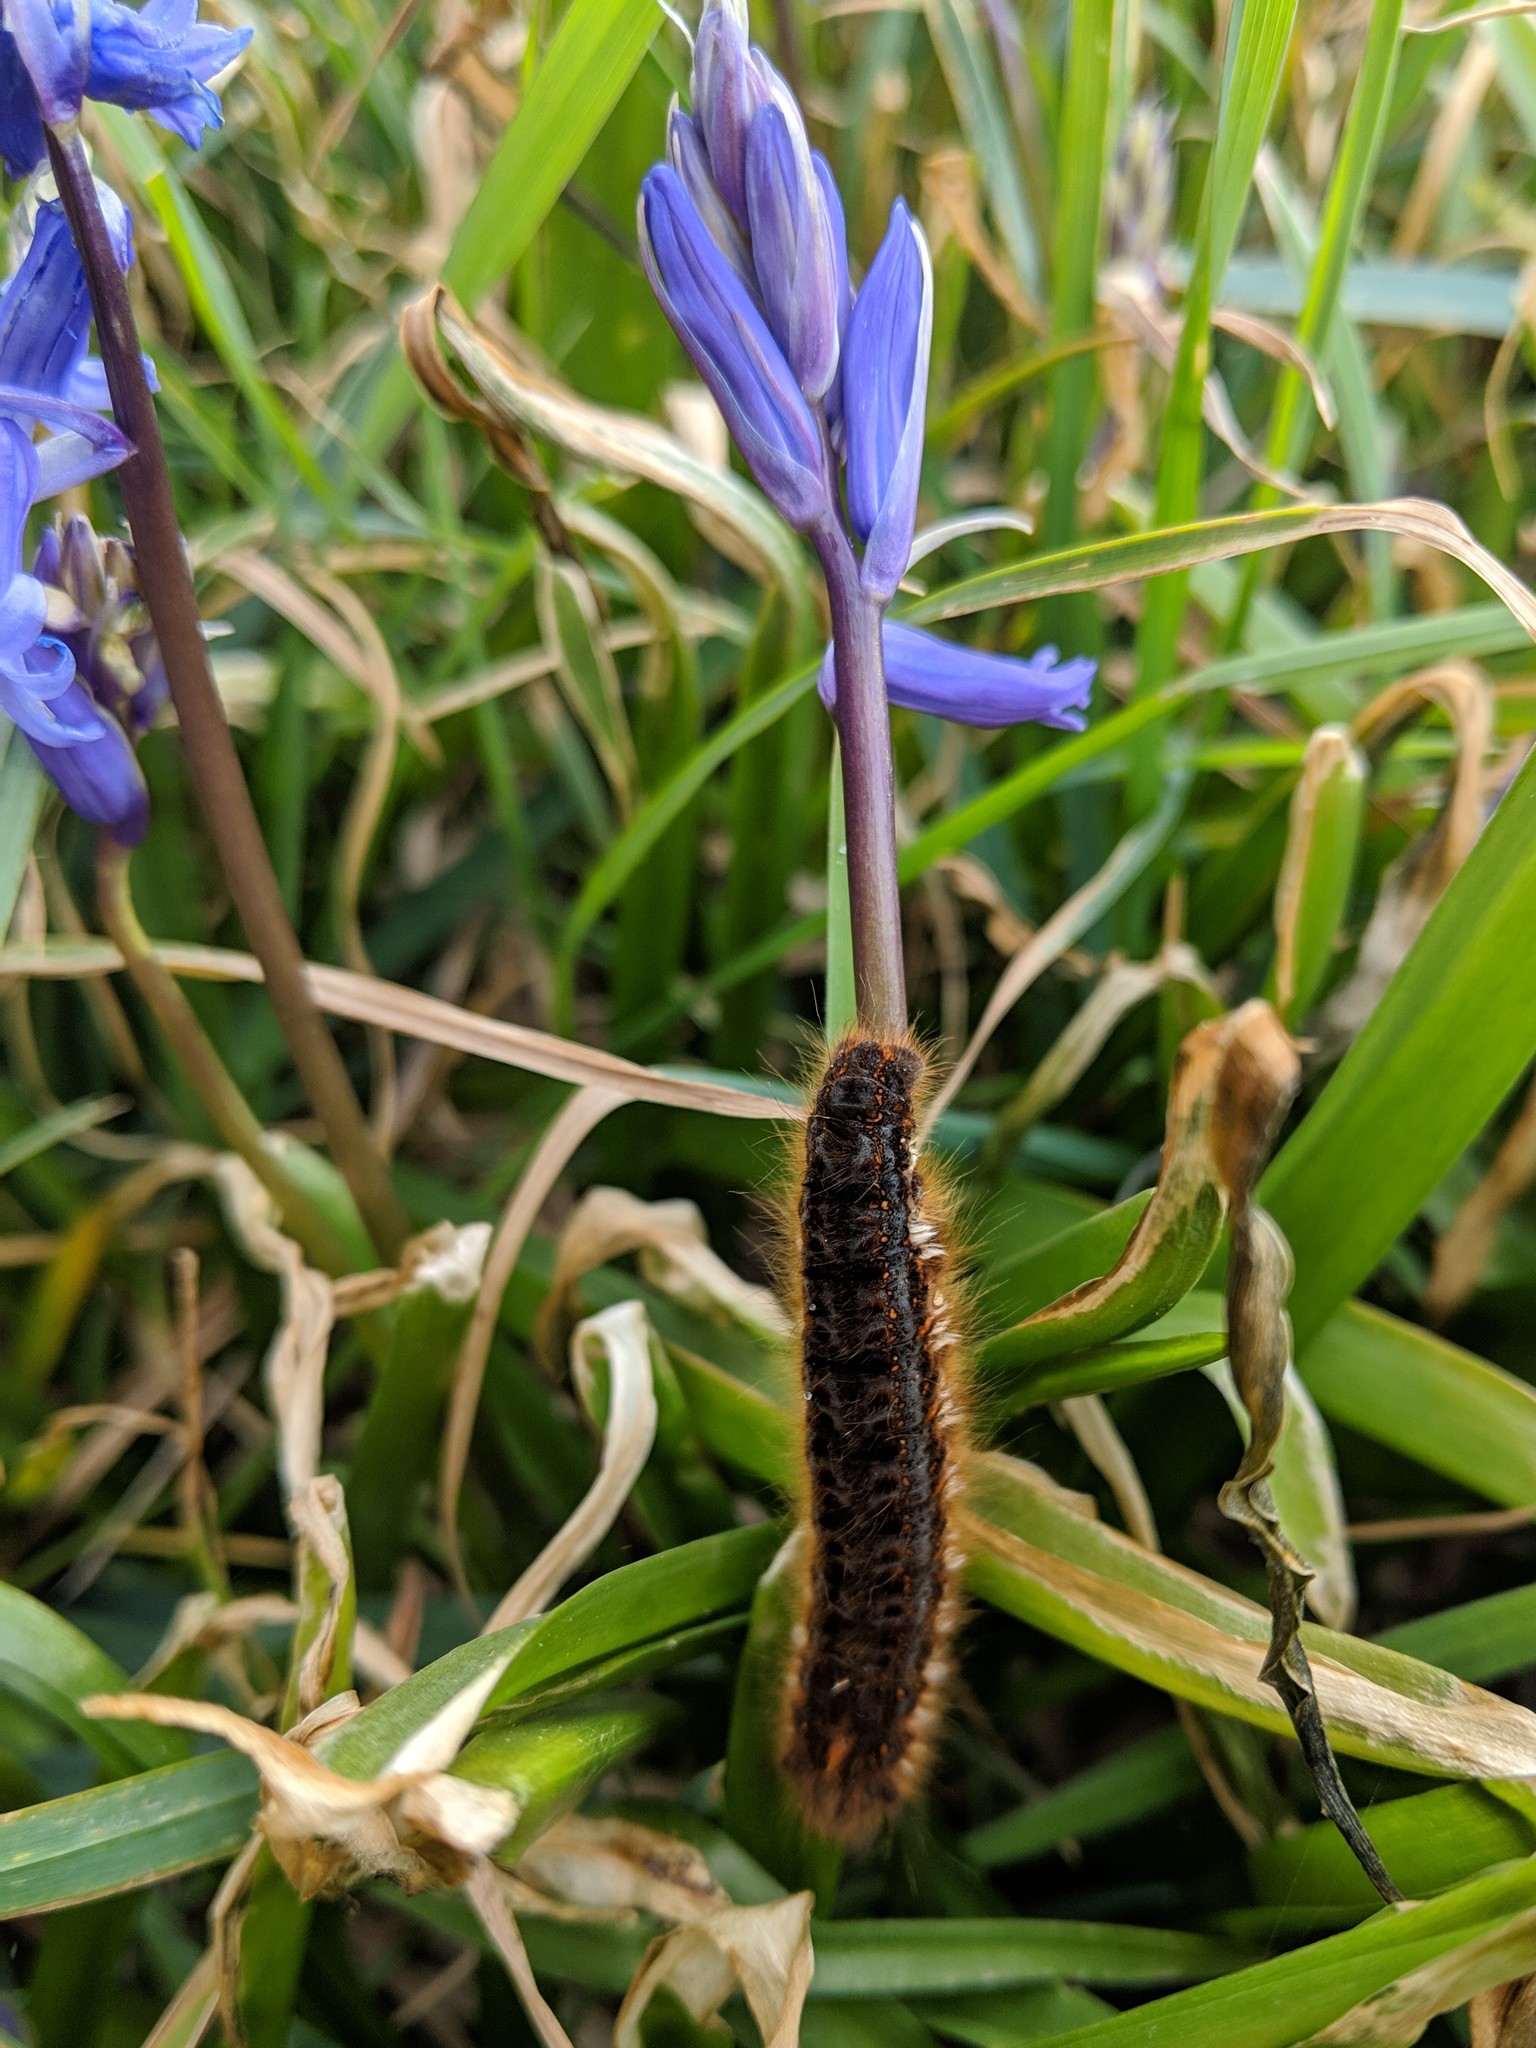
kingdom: Animalia
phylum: Arthropoda
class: Insecta
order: Lepidoptera
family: Lasiocampidae
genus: Euthrix
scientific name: Euthrix potatoria
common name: Drinker
